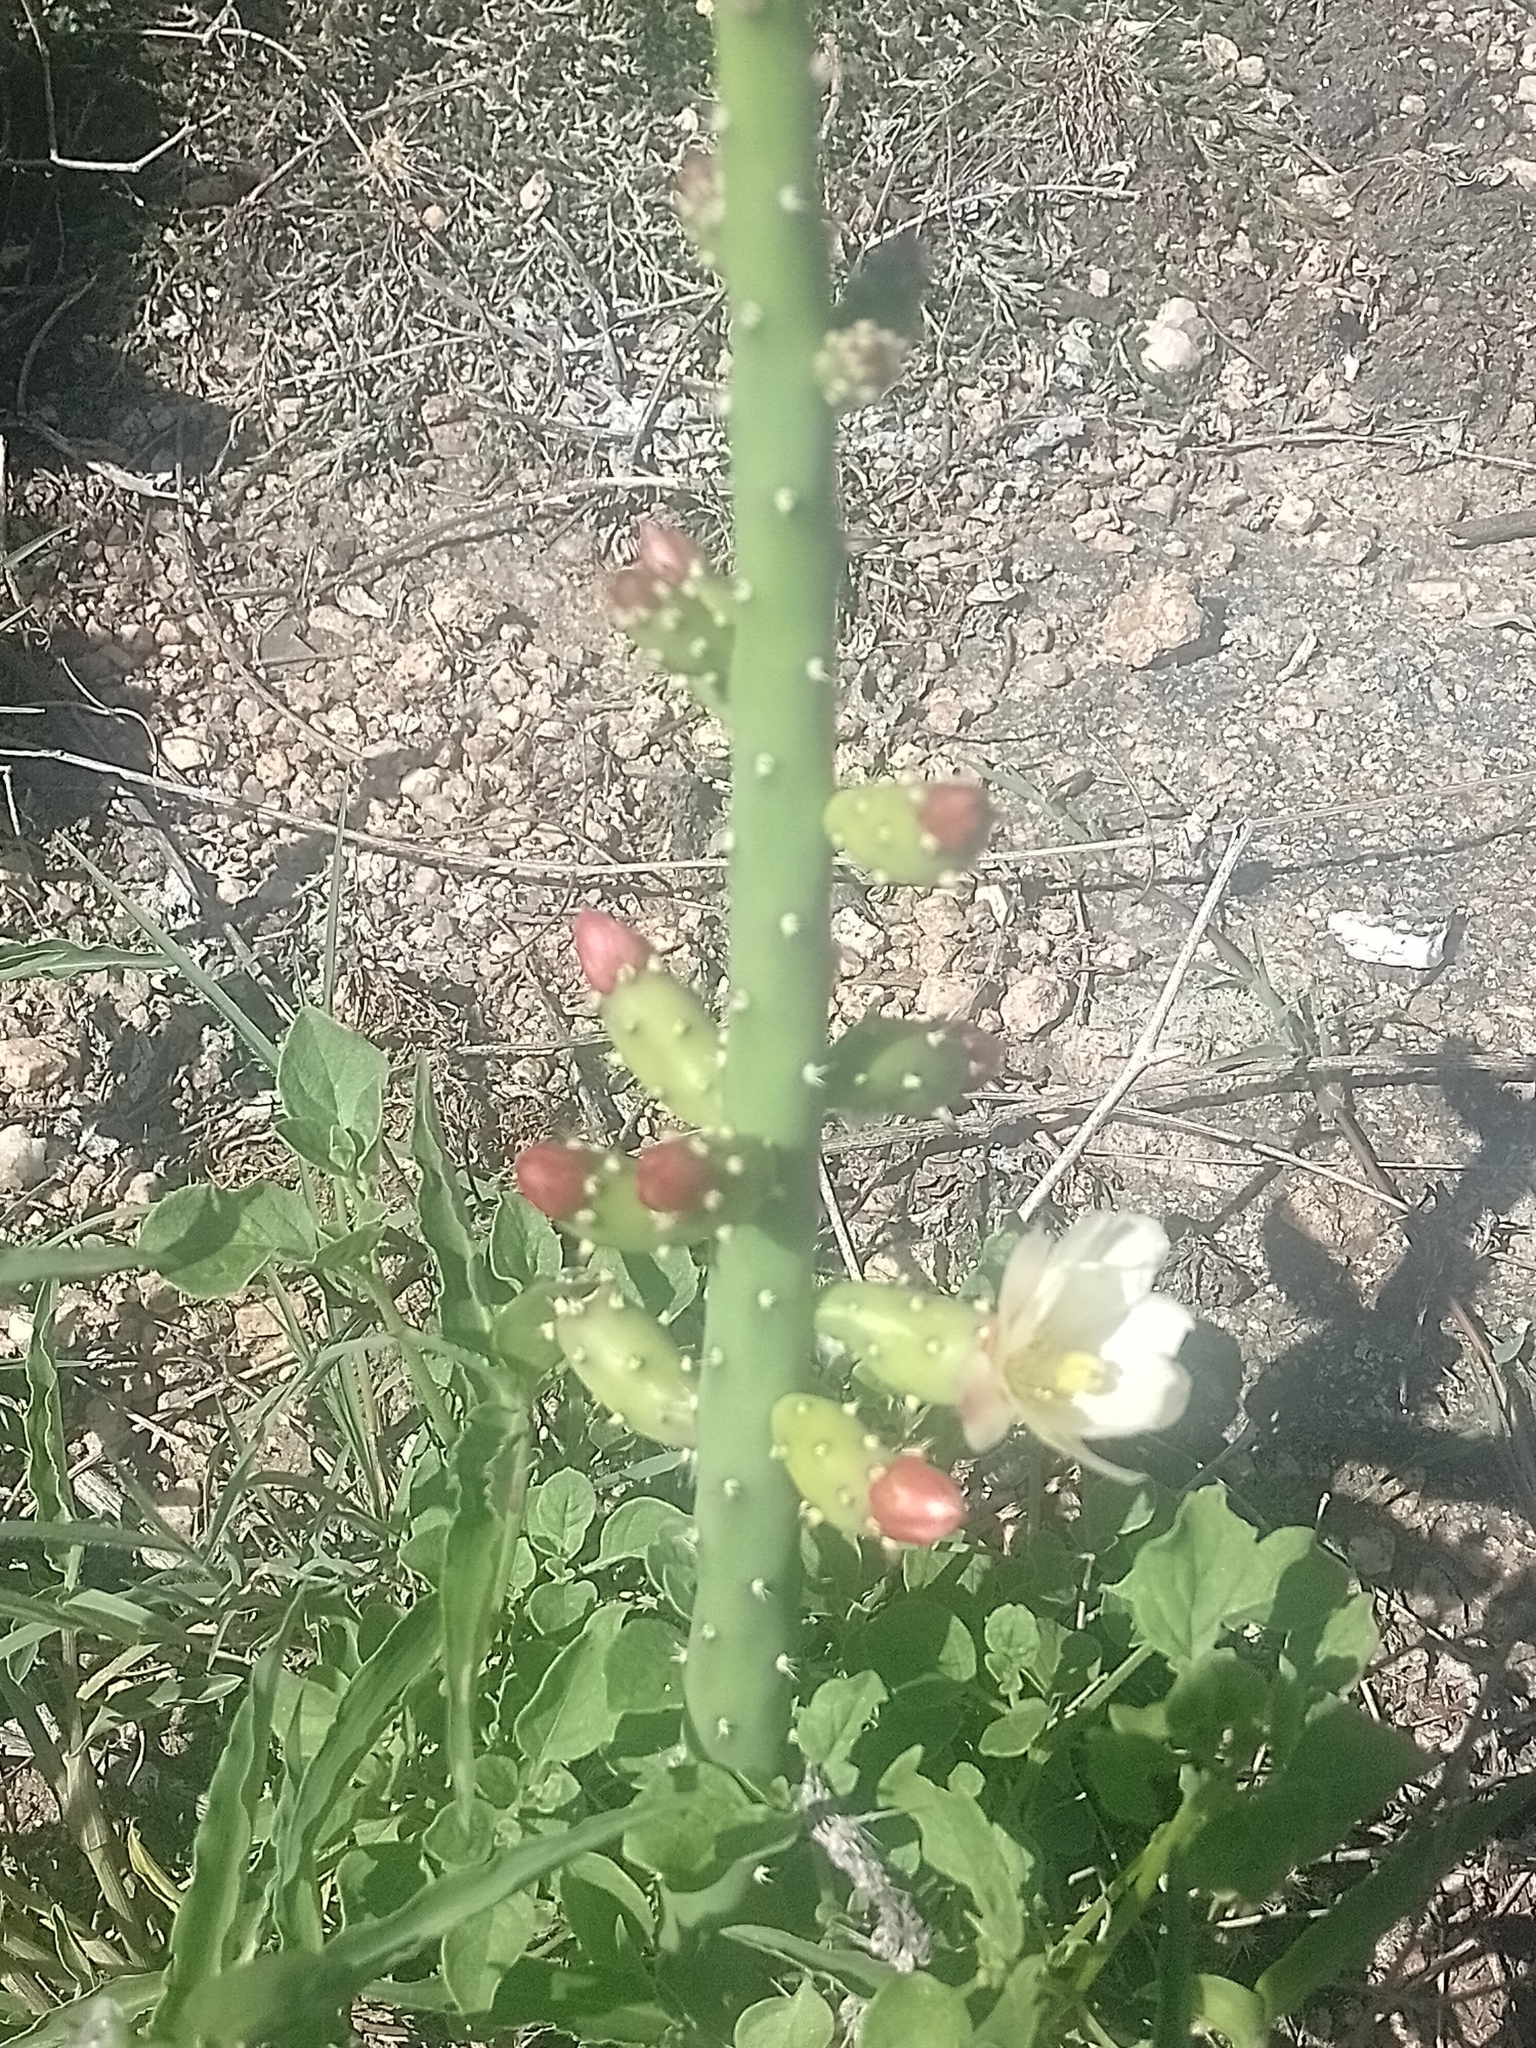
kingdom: Plantae
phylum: Tracheophyta
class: Magnoliopsida
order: Caryophyllales
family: Cactaceae
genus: Salmonopuntia
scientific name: Salmonopuntia salmiana
